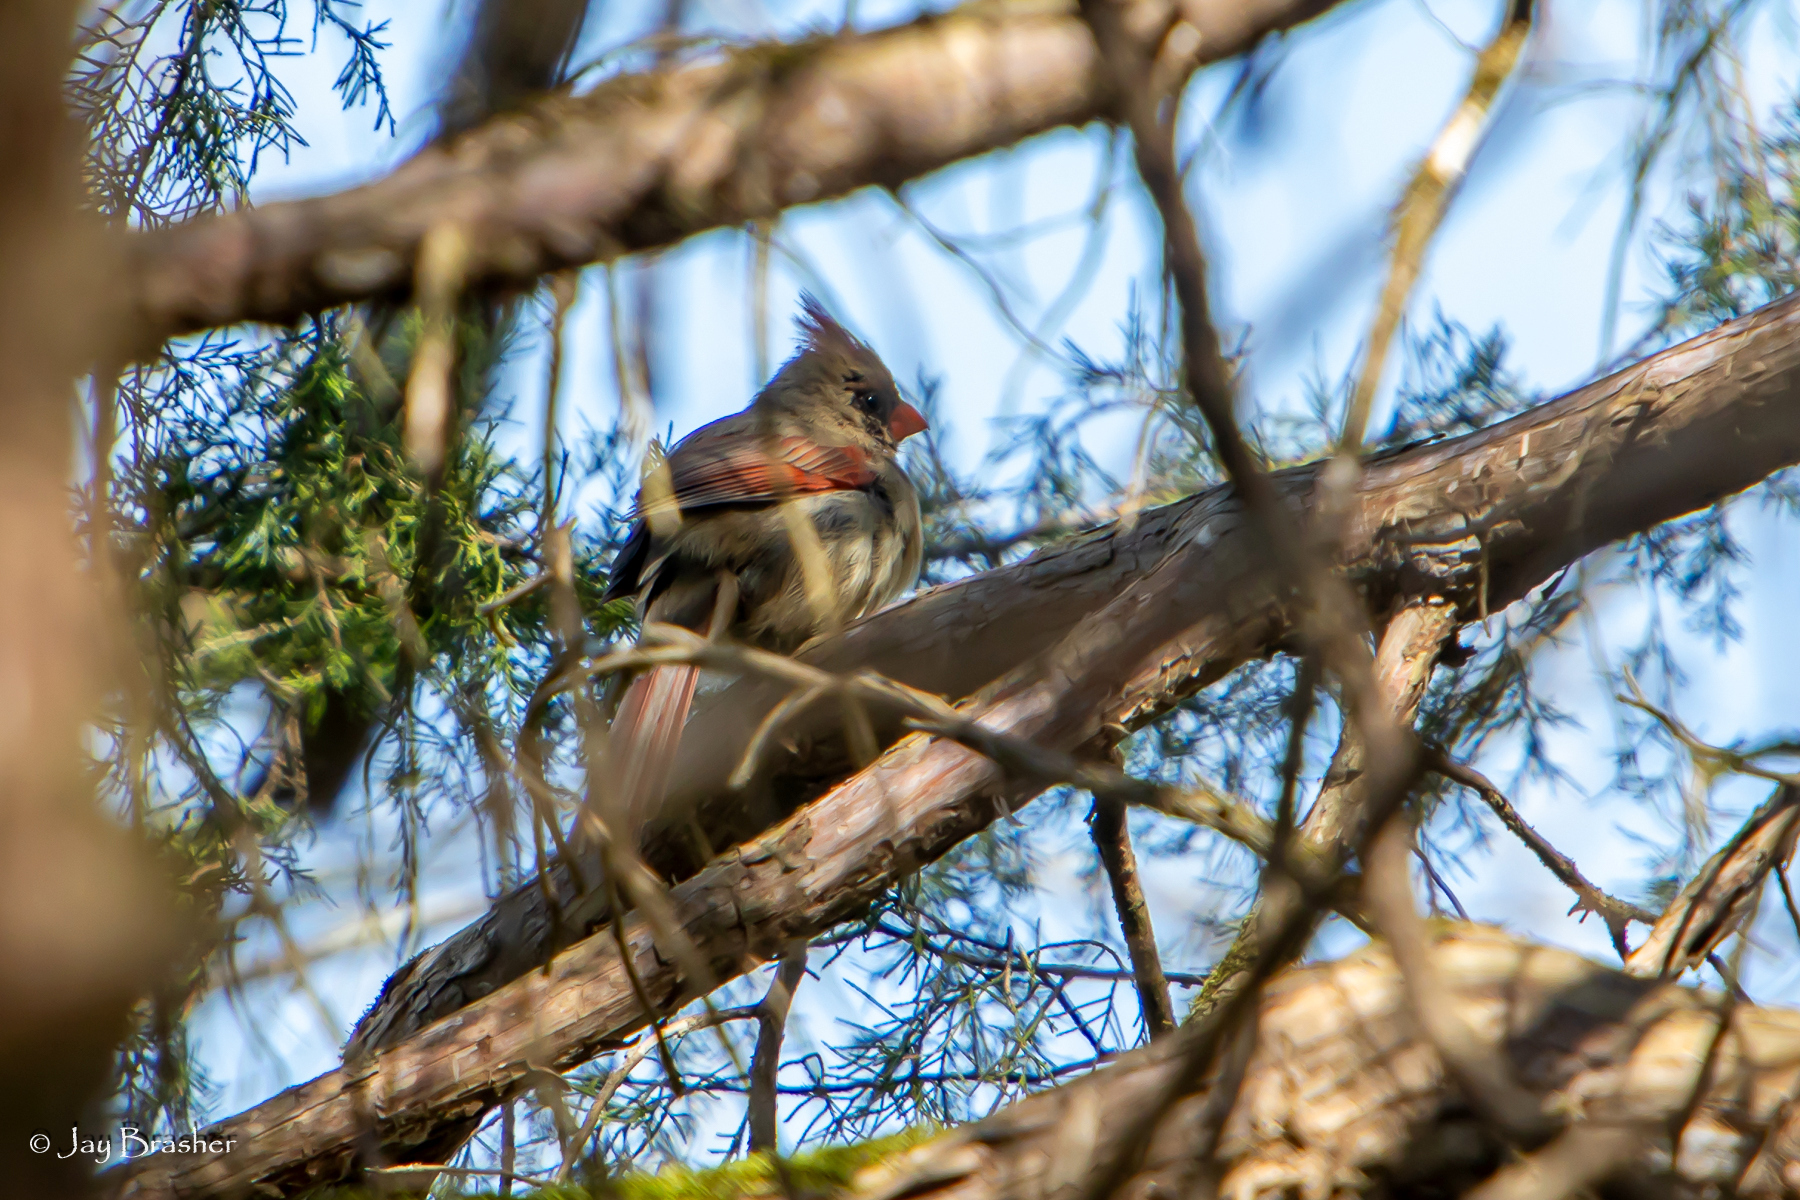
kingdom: Animalia
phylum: Chordata
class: Aves
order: Passeriformes
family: Cardinalidae
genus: Cardinalis
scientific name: Cardinalis cardinalis
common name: Northern cardinal
